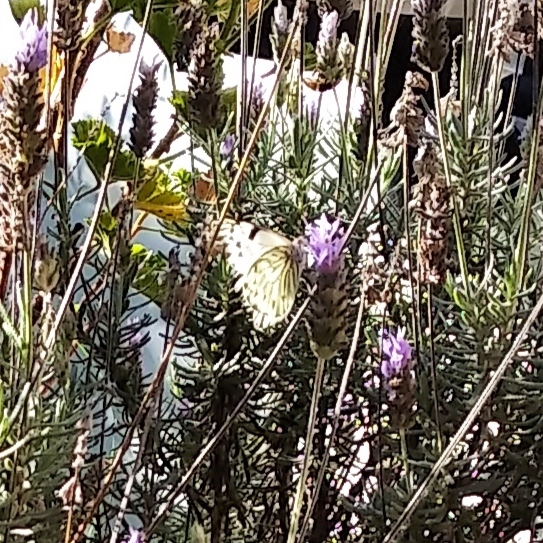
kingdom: Animalia
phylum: Arthropoda
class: Insecta
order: Lepidoptera
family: Pieridae
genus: Tatochila
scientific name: Tatochila autodice
